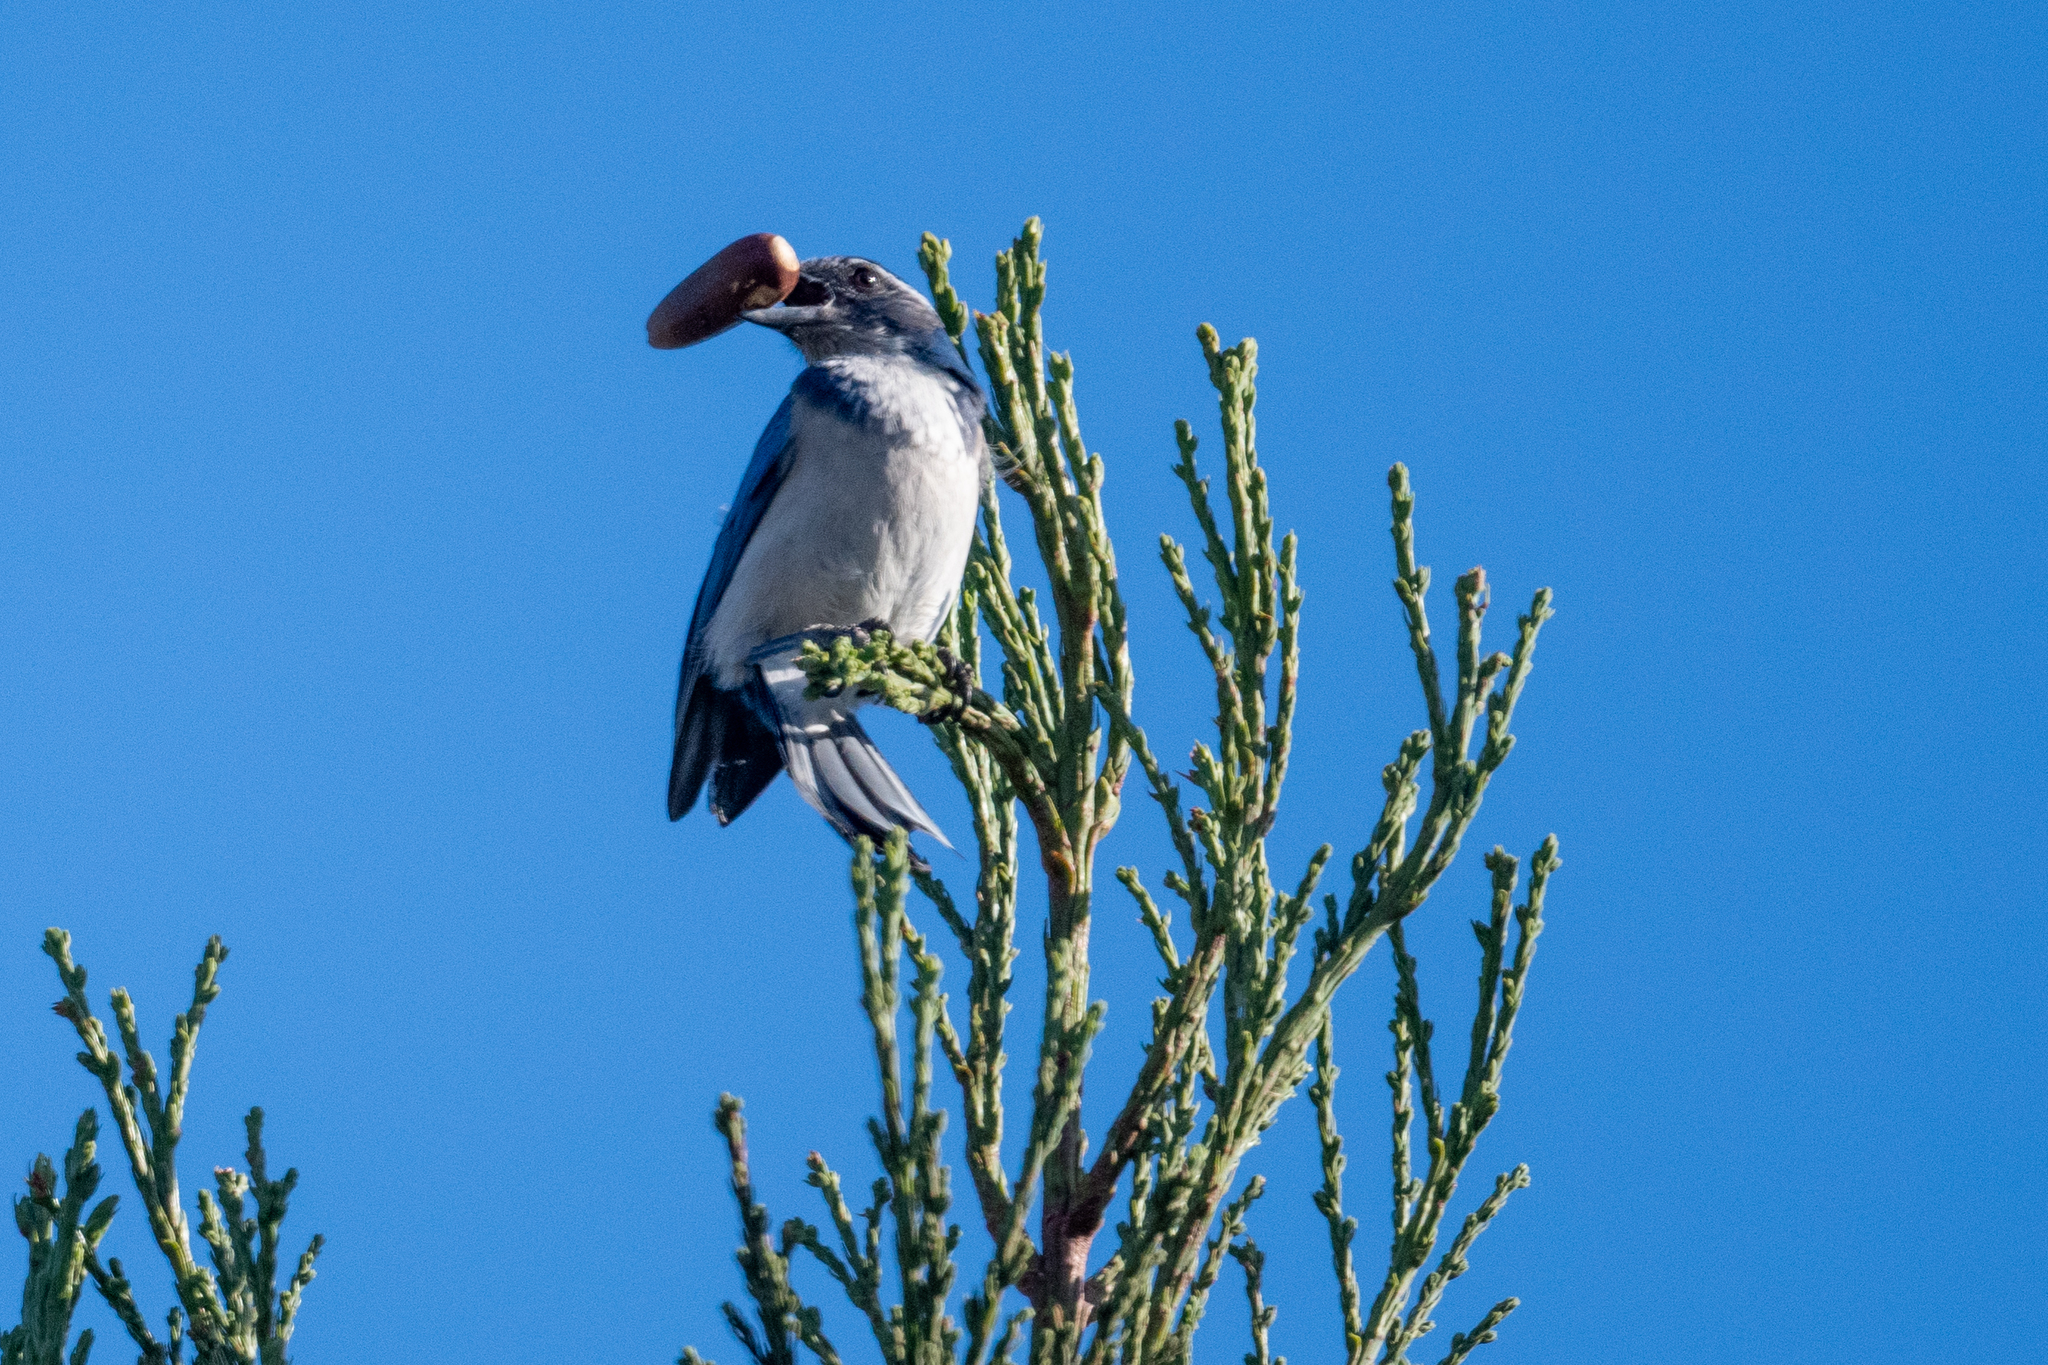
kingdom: Animalia
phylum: Chordata
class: Aves
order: Passeriformes
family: Corvidae
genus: Aphelocoma
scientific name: Aphelocoma californica
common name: California scrub-jay
